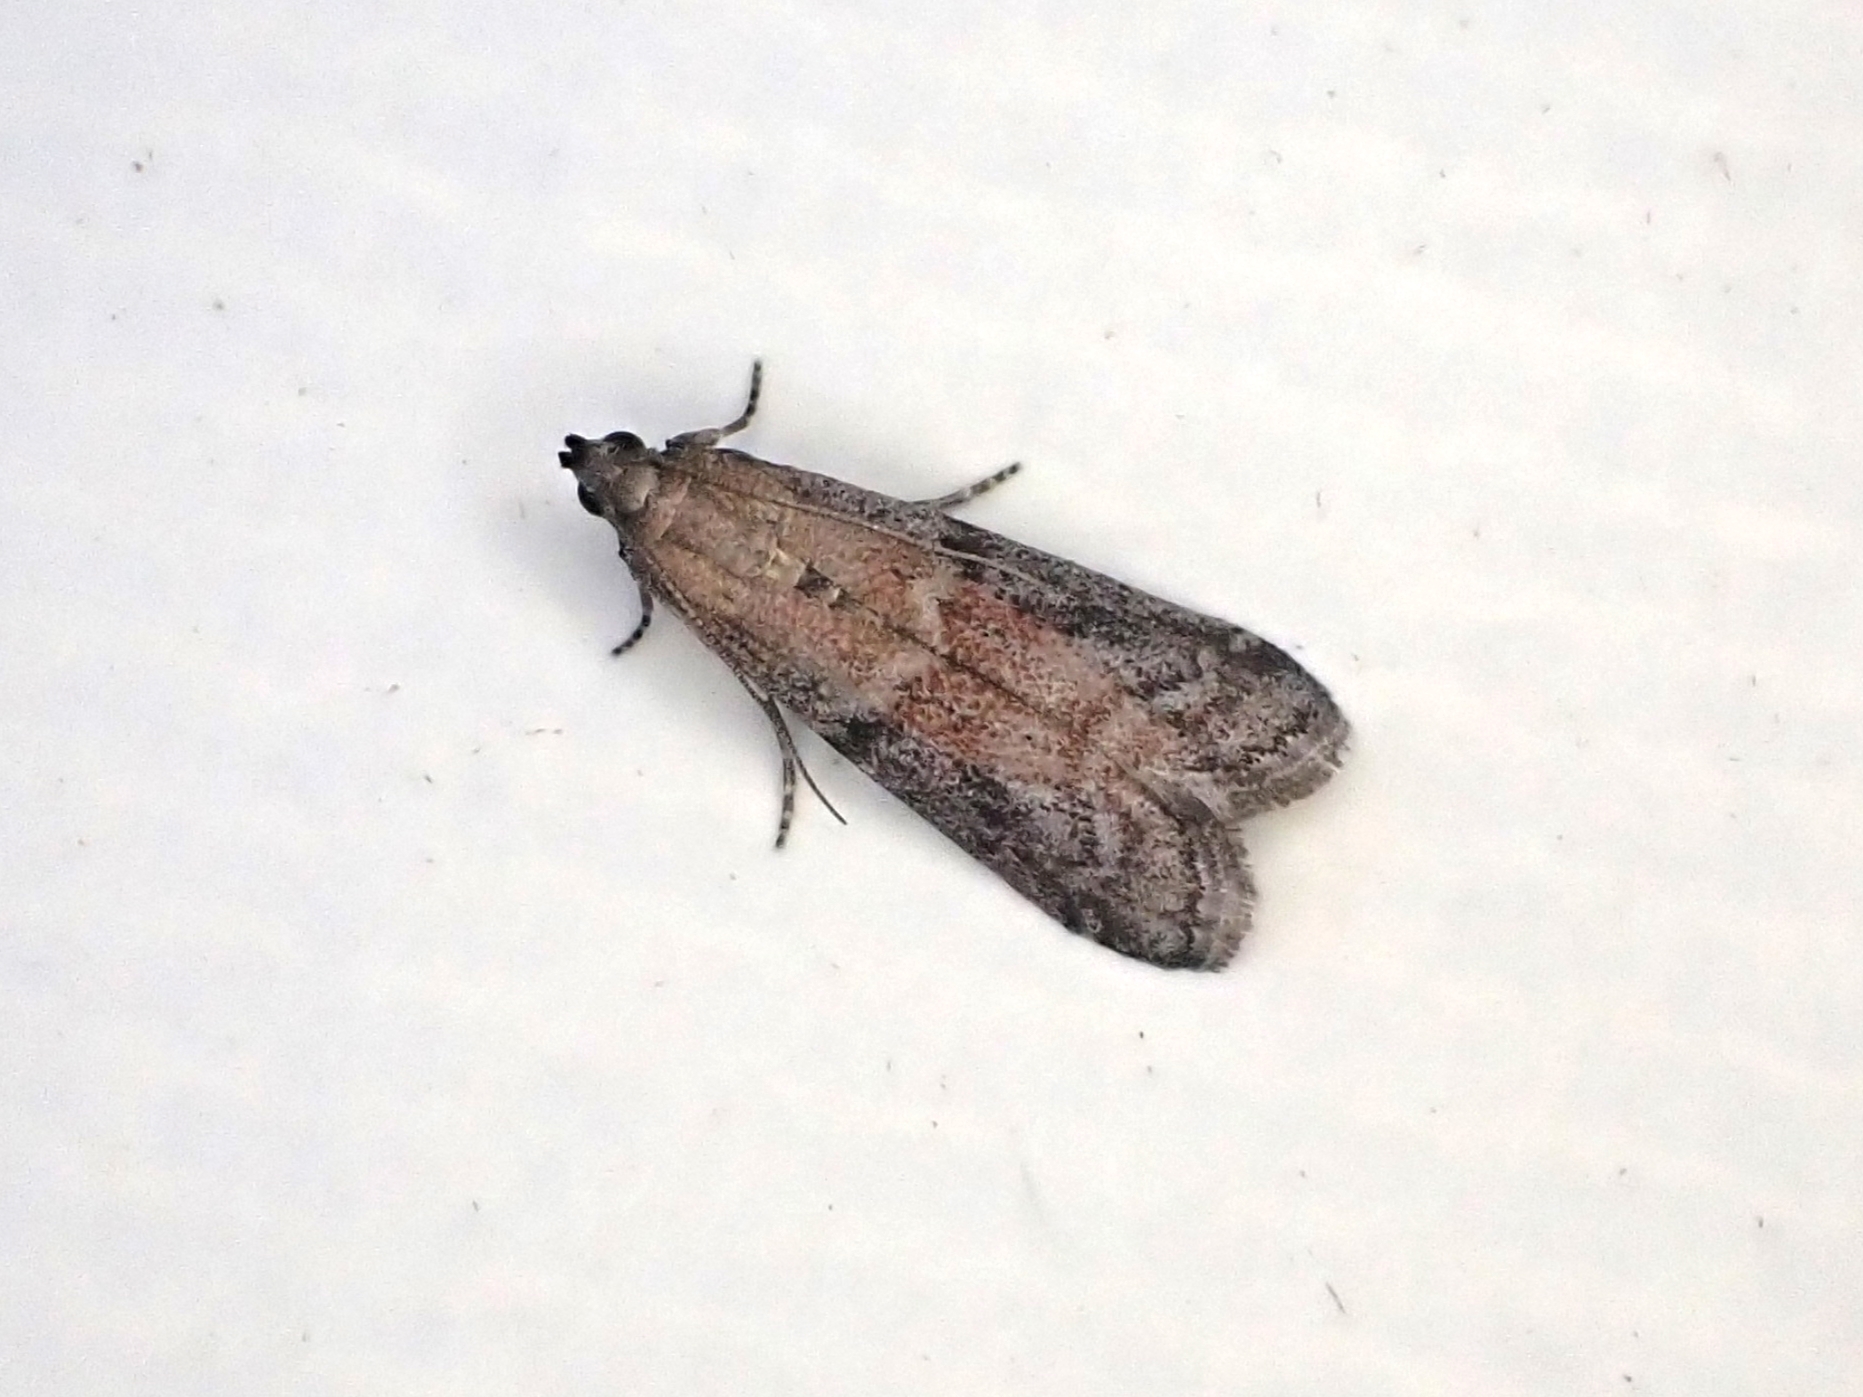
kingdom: Animalia
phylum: Arthropoda
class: Insecta
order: Lepidoptera
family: Pyralidae
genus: Ephestia
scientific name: Ephestia elutella
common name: Cacao moth
